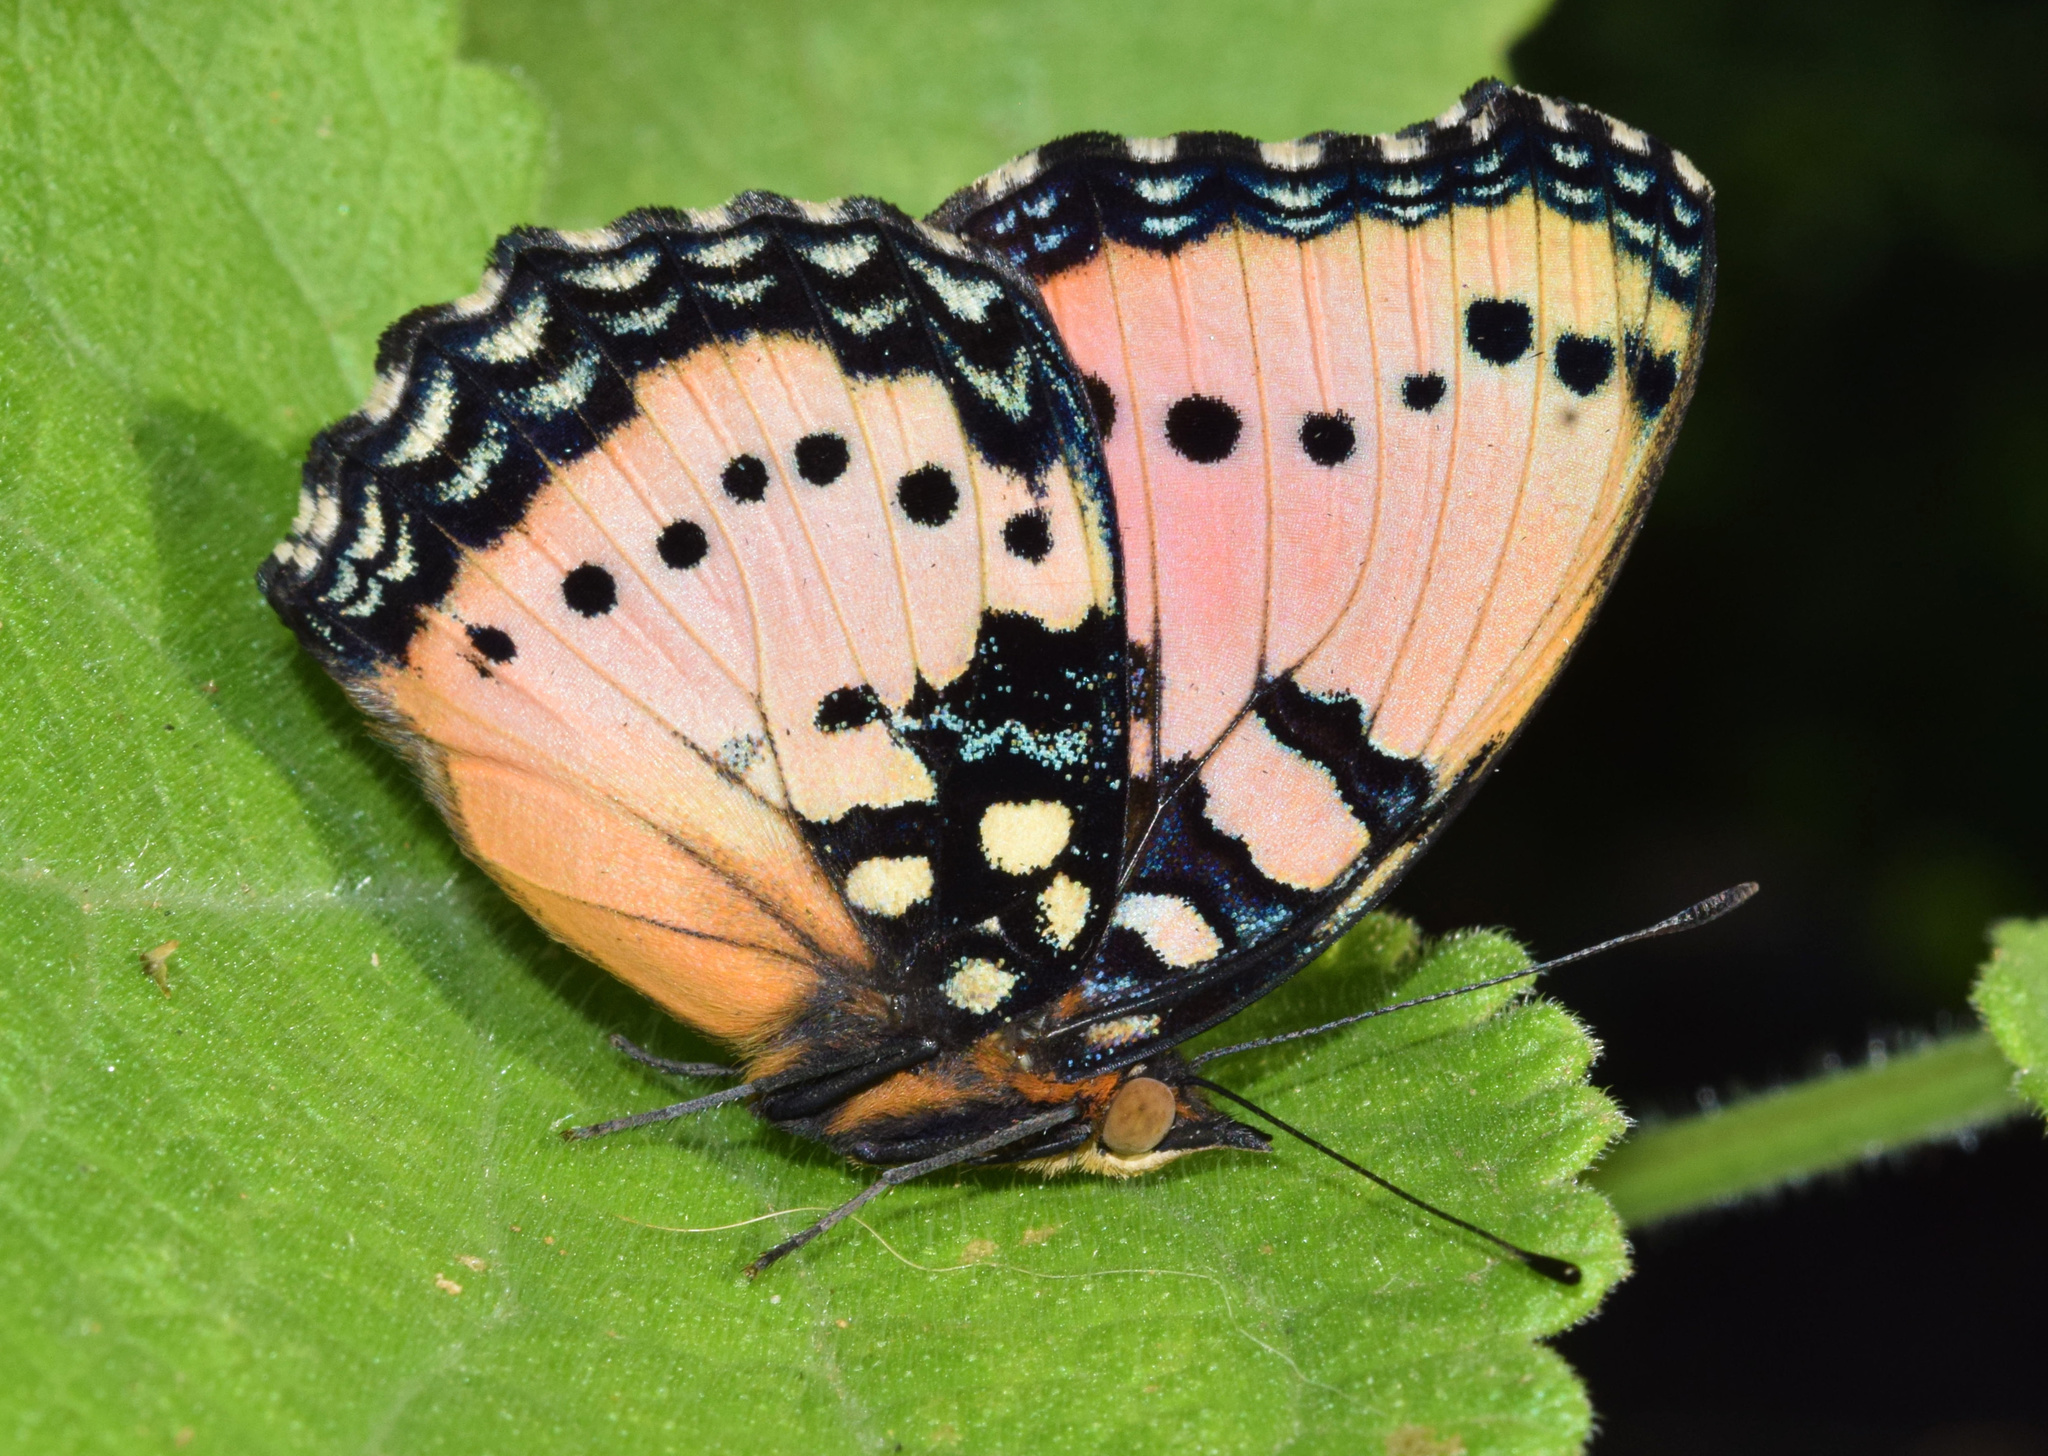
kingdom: Animalia
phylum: Arthropoda
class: Insecta
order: Lepidoptera
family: Nymphalidae
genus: Precis
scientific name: Precis octavia
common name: Gaudy commodore
